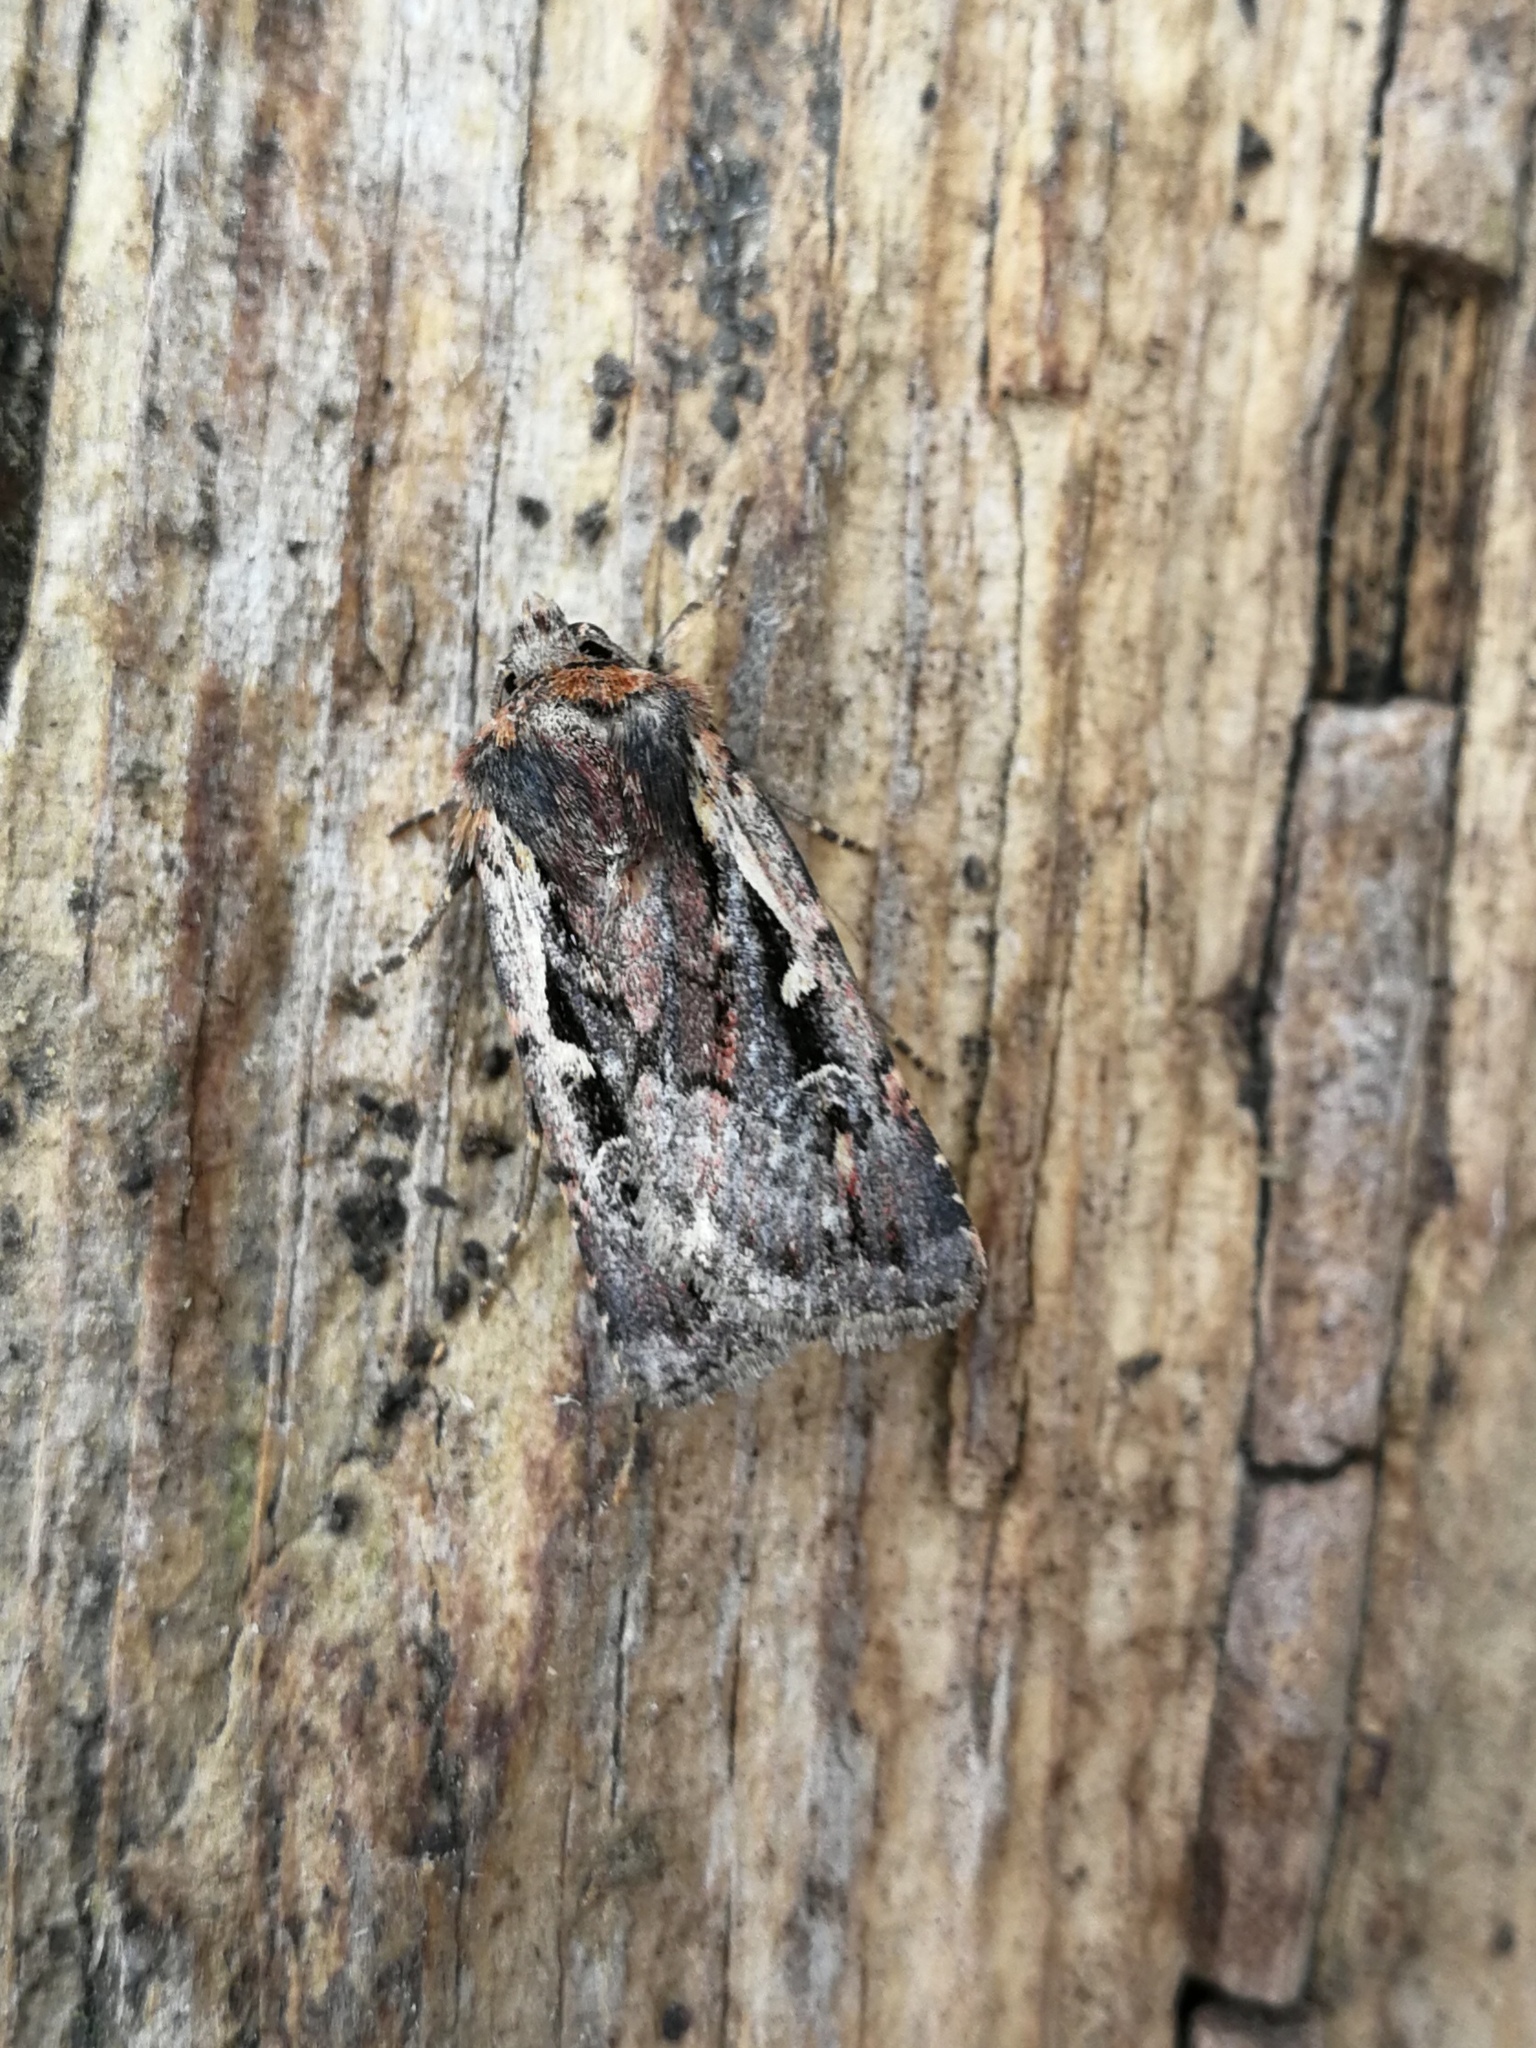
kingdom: Animalia
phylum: Arthropoda
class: Insecta
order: Lepidoptera
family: Noctuidae
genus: Xestia
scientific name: Xestia agathina
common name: Heath rustic
